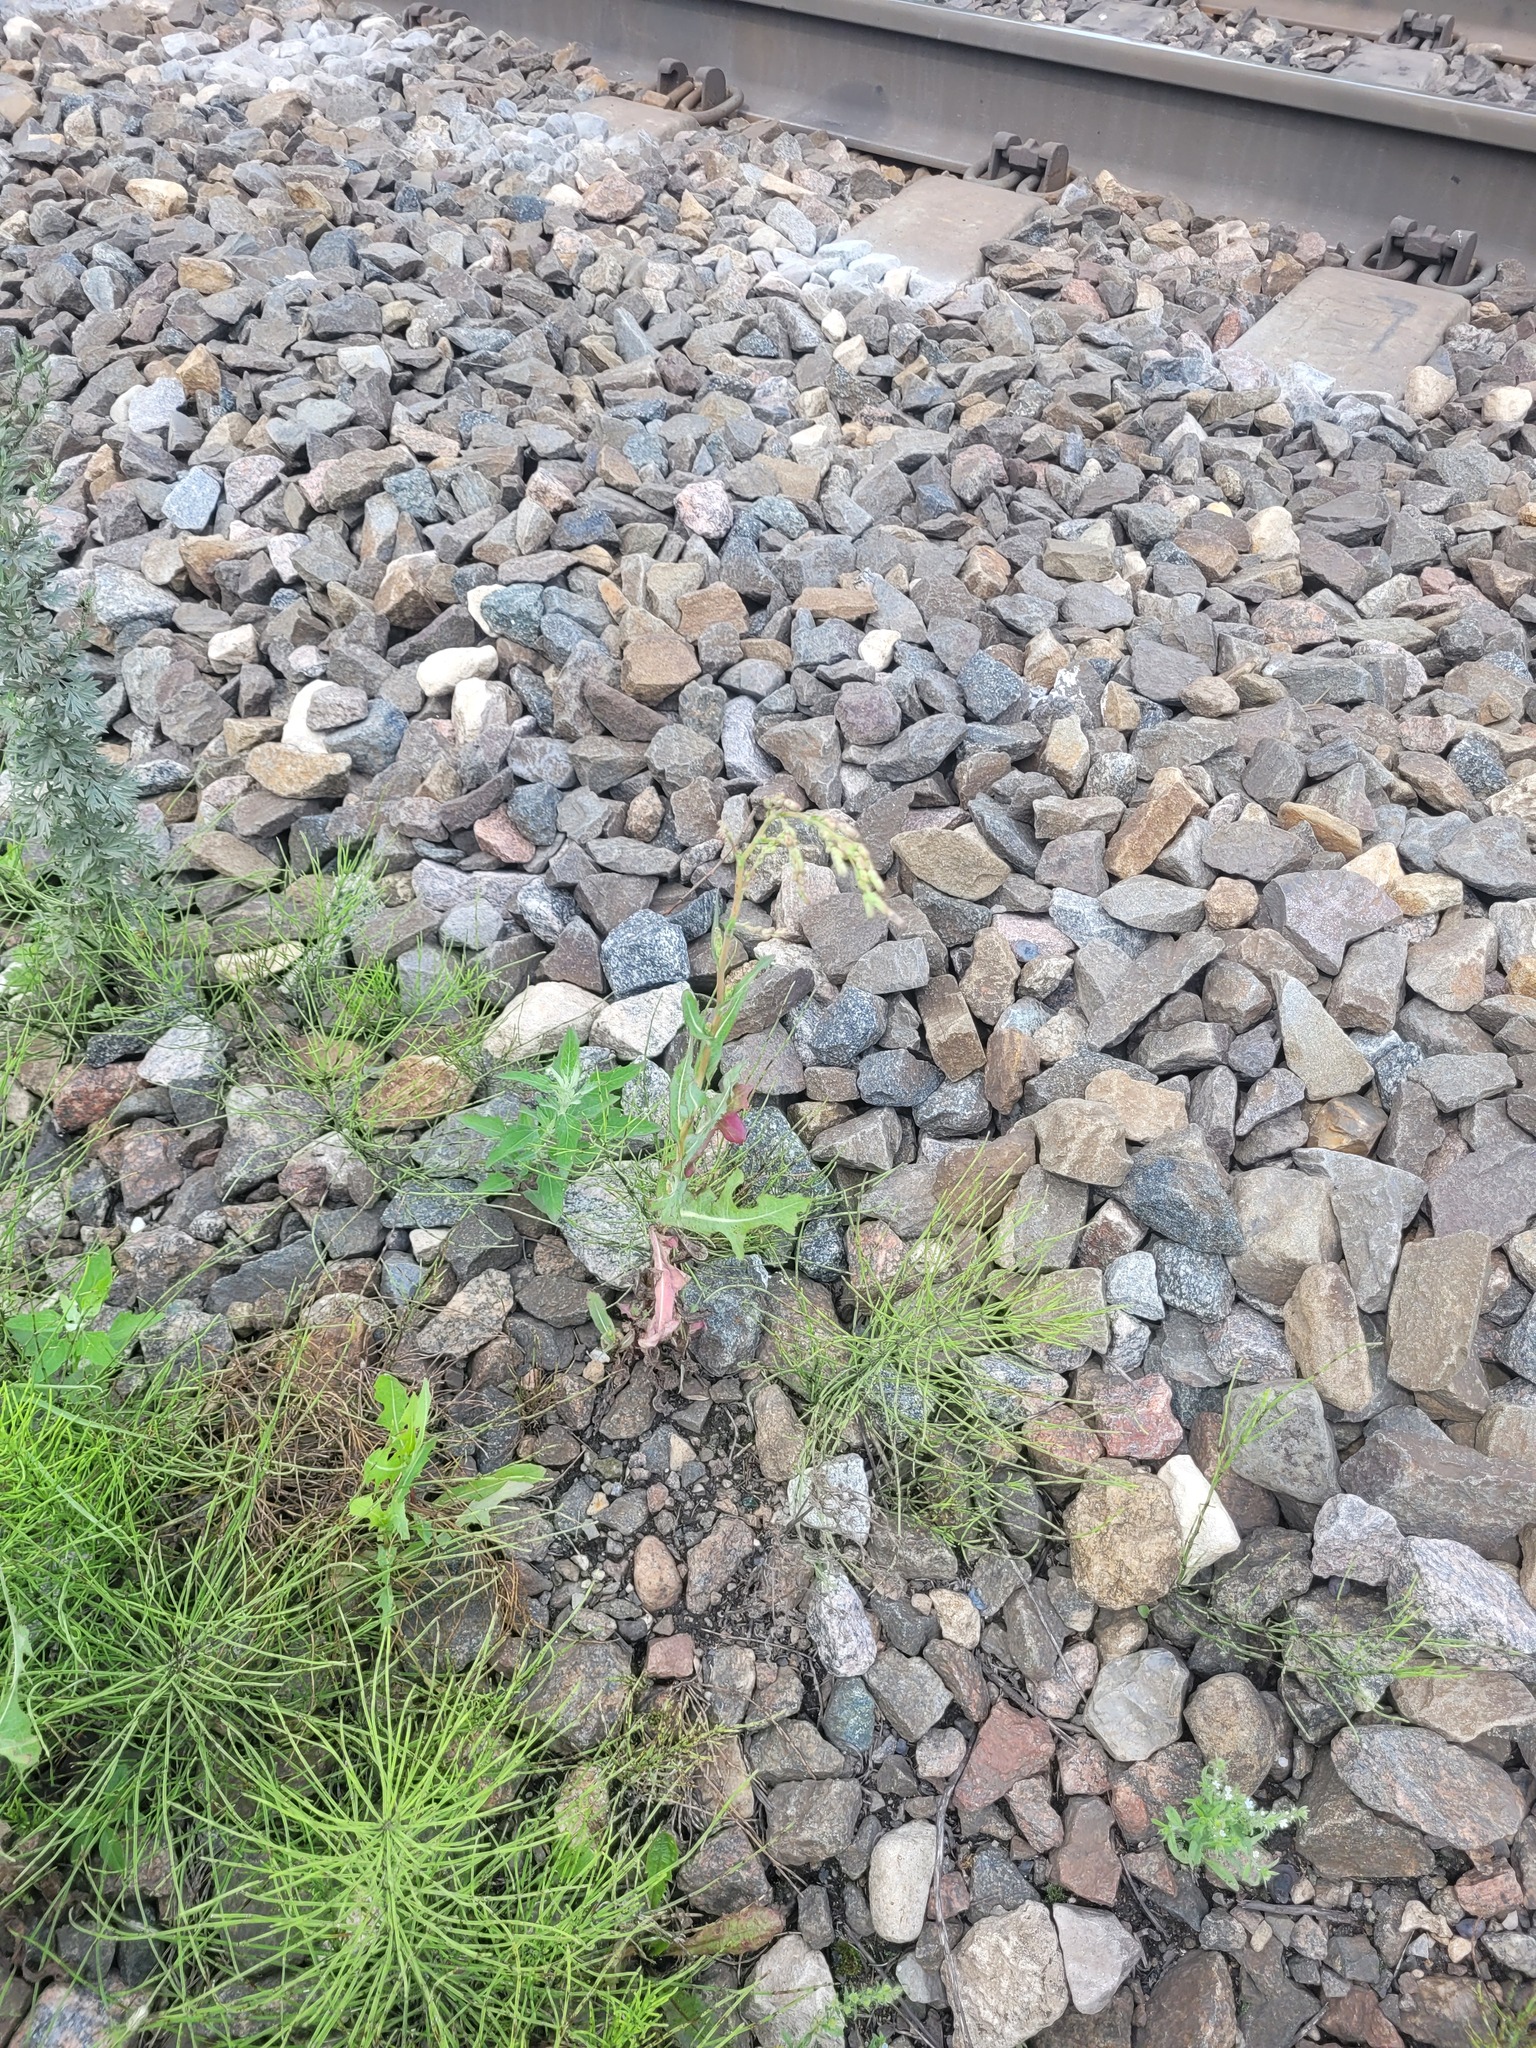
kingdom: Plantae
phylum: Tracheophyta
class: Magnoliopsida
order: Asterales
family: Asteraceae
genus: Lactuca
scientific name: Lactuca serriola
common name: Prickly lettuce
